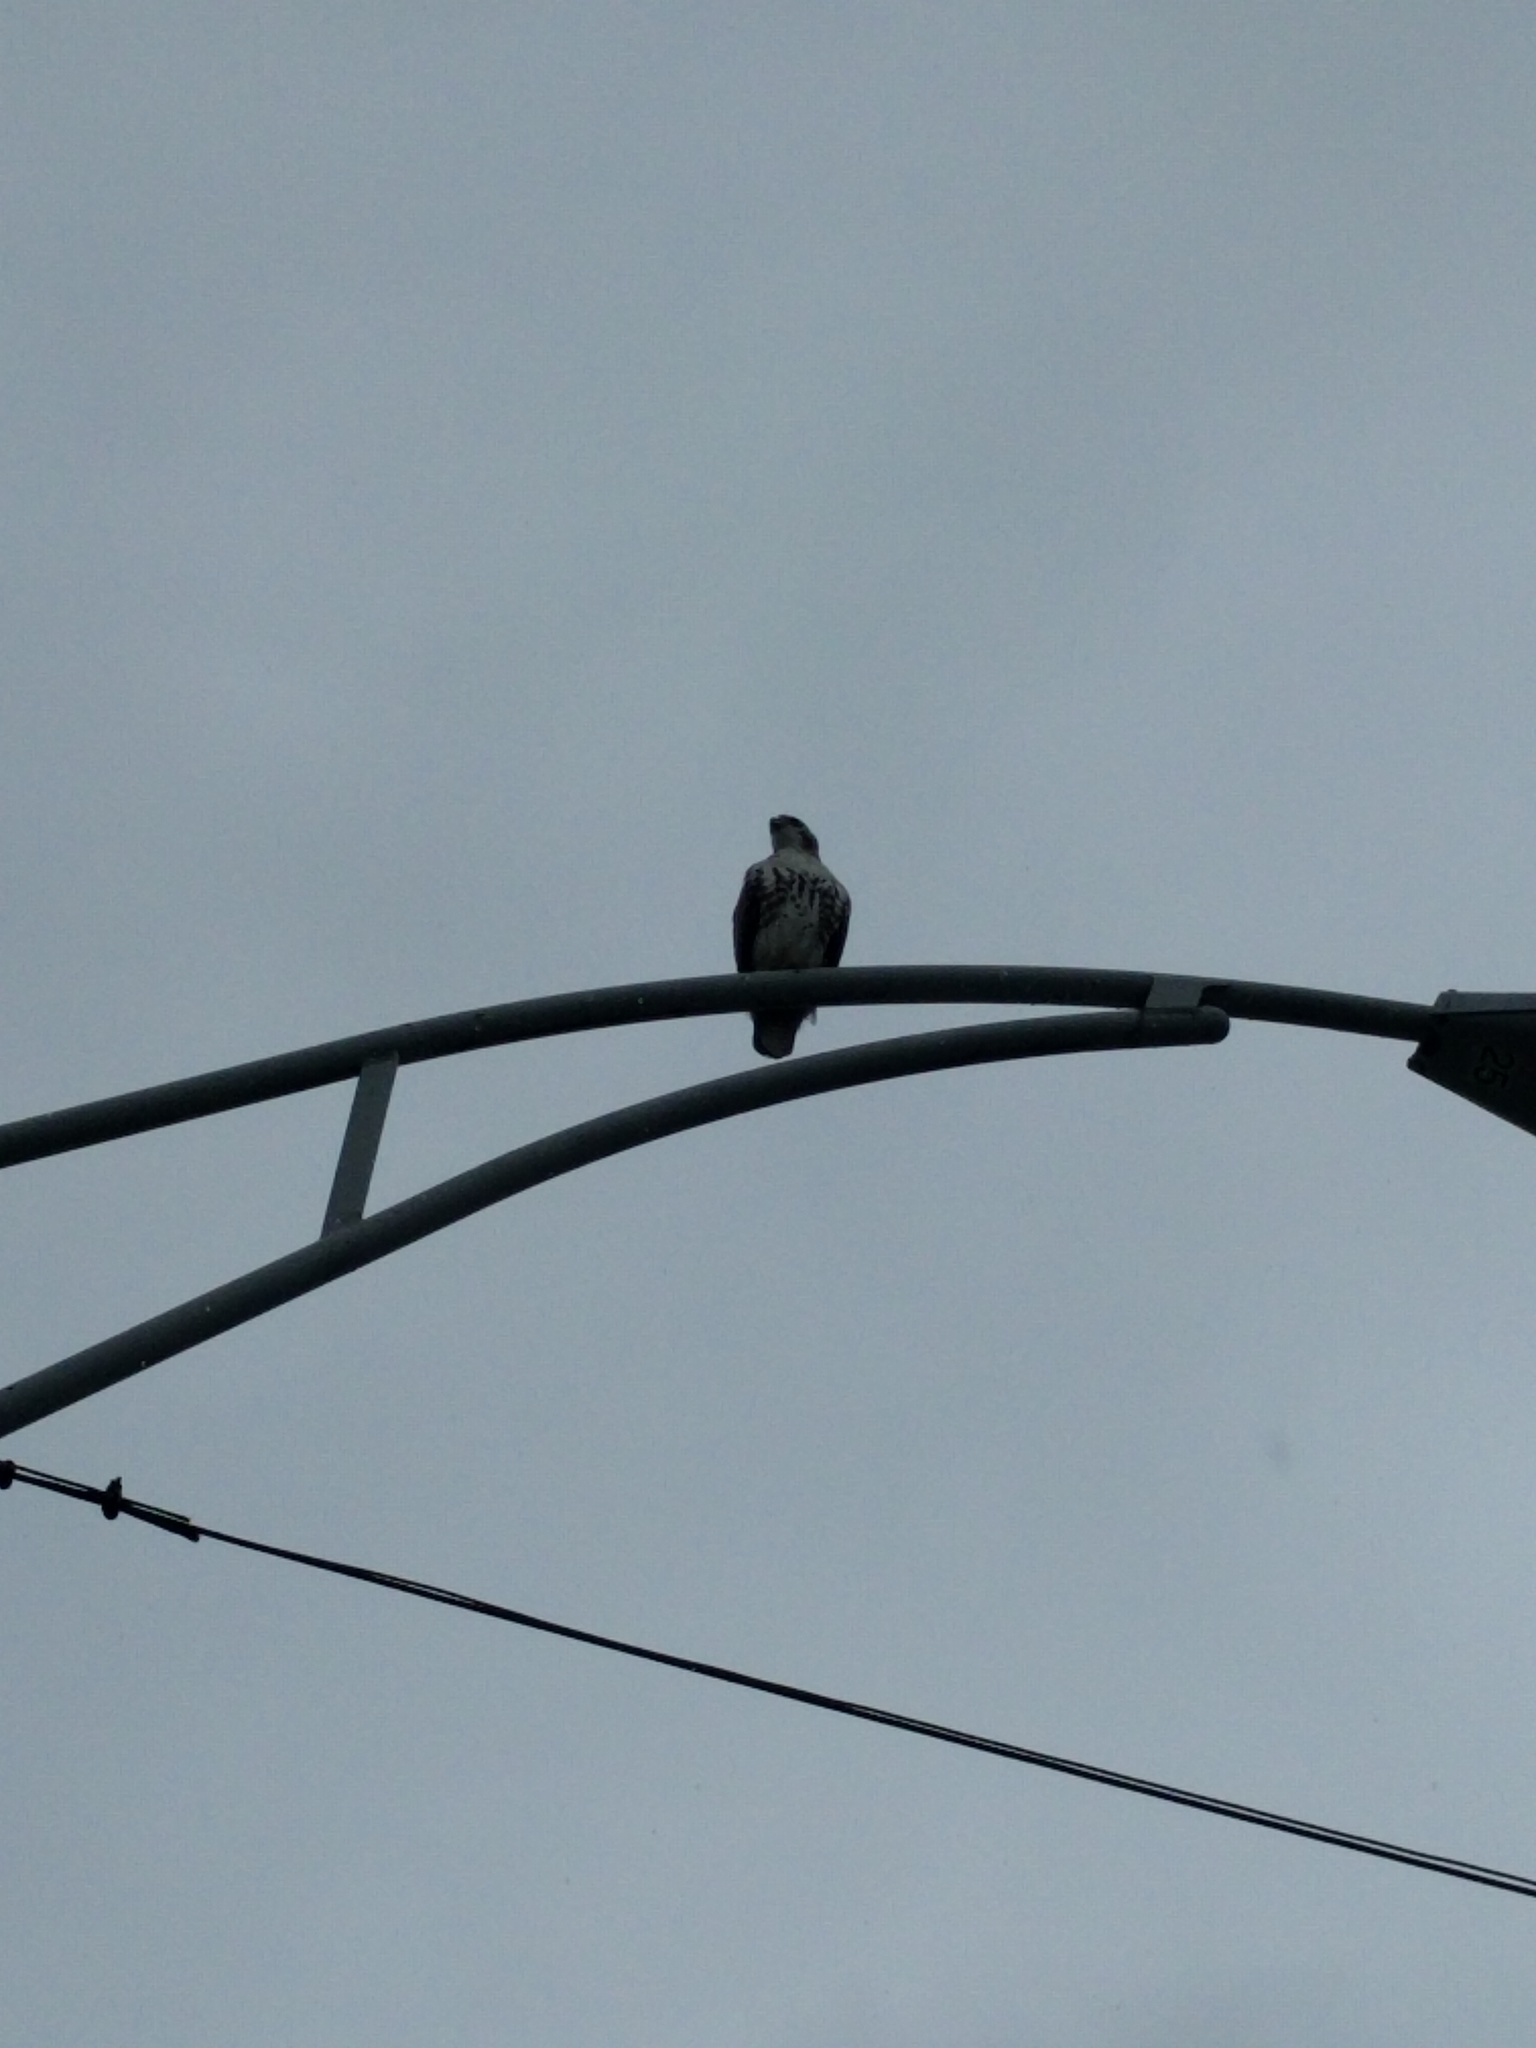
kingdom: Animalia
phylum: Chordata
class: Aves
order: Accipitriformes
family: Accipitridae
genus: Buteo
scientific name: Buteo jamaicensis
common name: Red-tailed hawk
